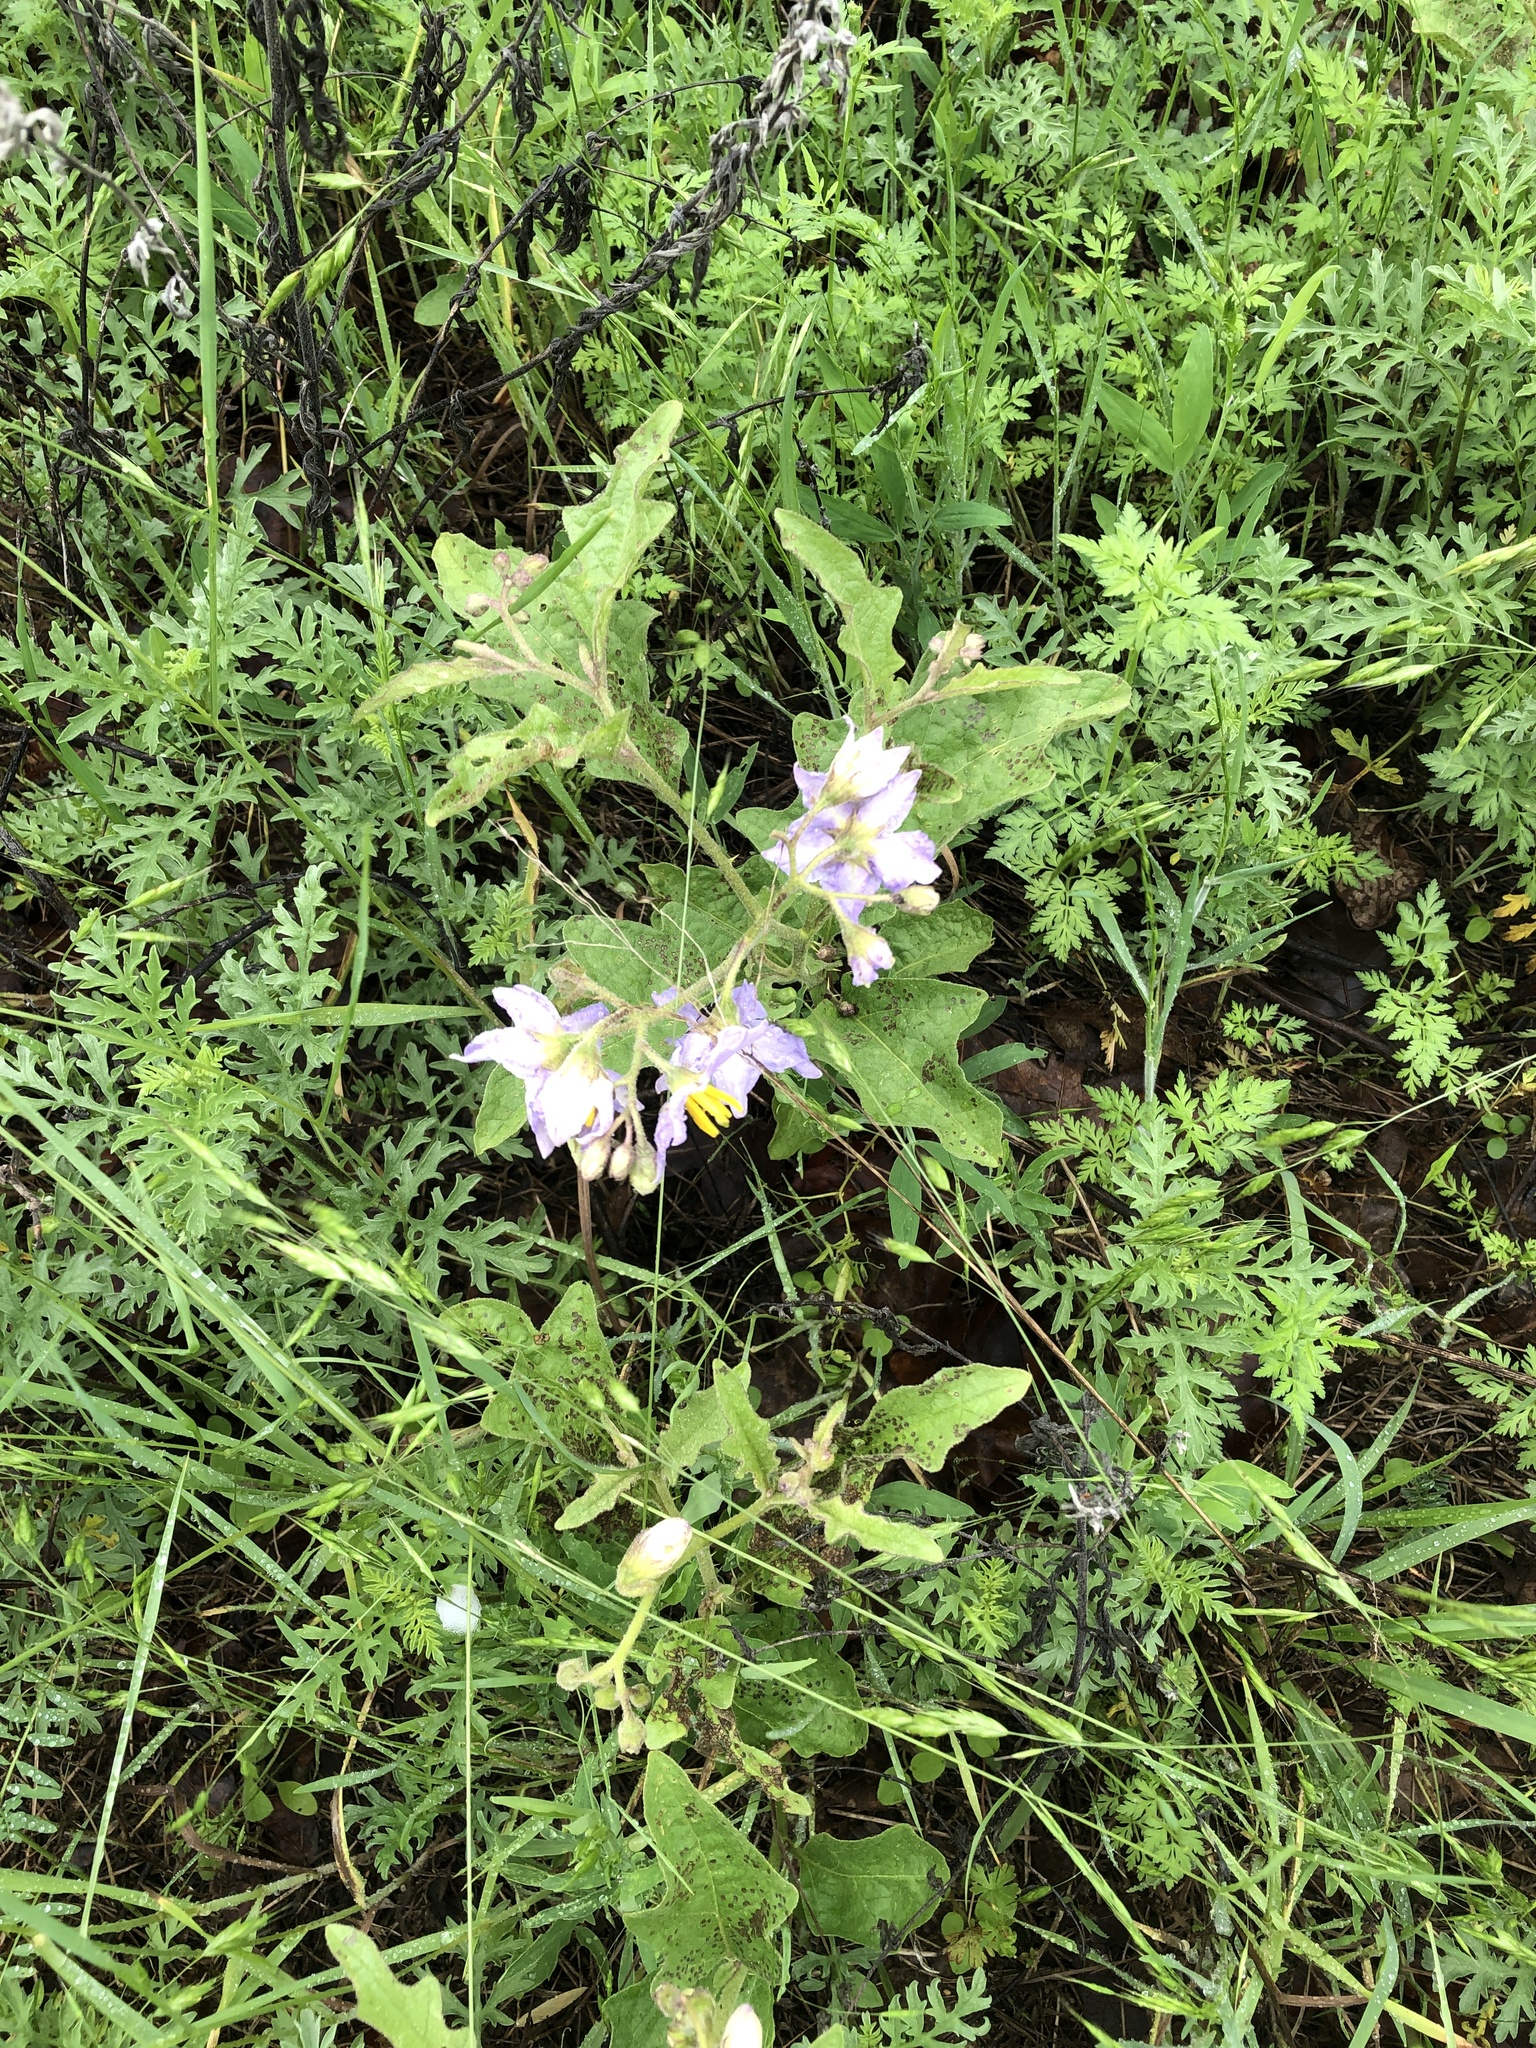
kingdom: Plantae
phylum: Tracheophyta
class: Magnoliopsida
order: Solanales
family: Solanaceae
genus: Solanum
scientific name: Solanum dimidiatum
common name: Carolina horse-nettle
